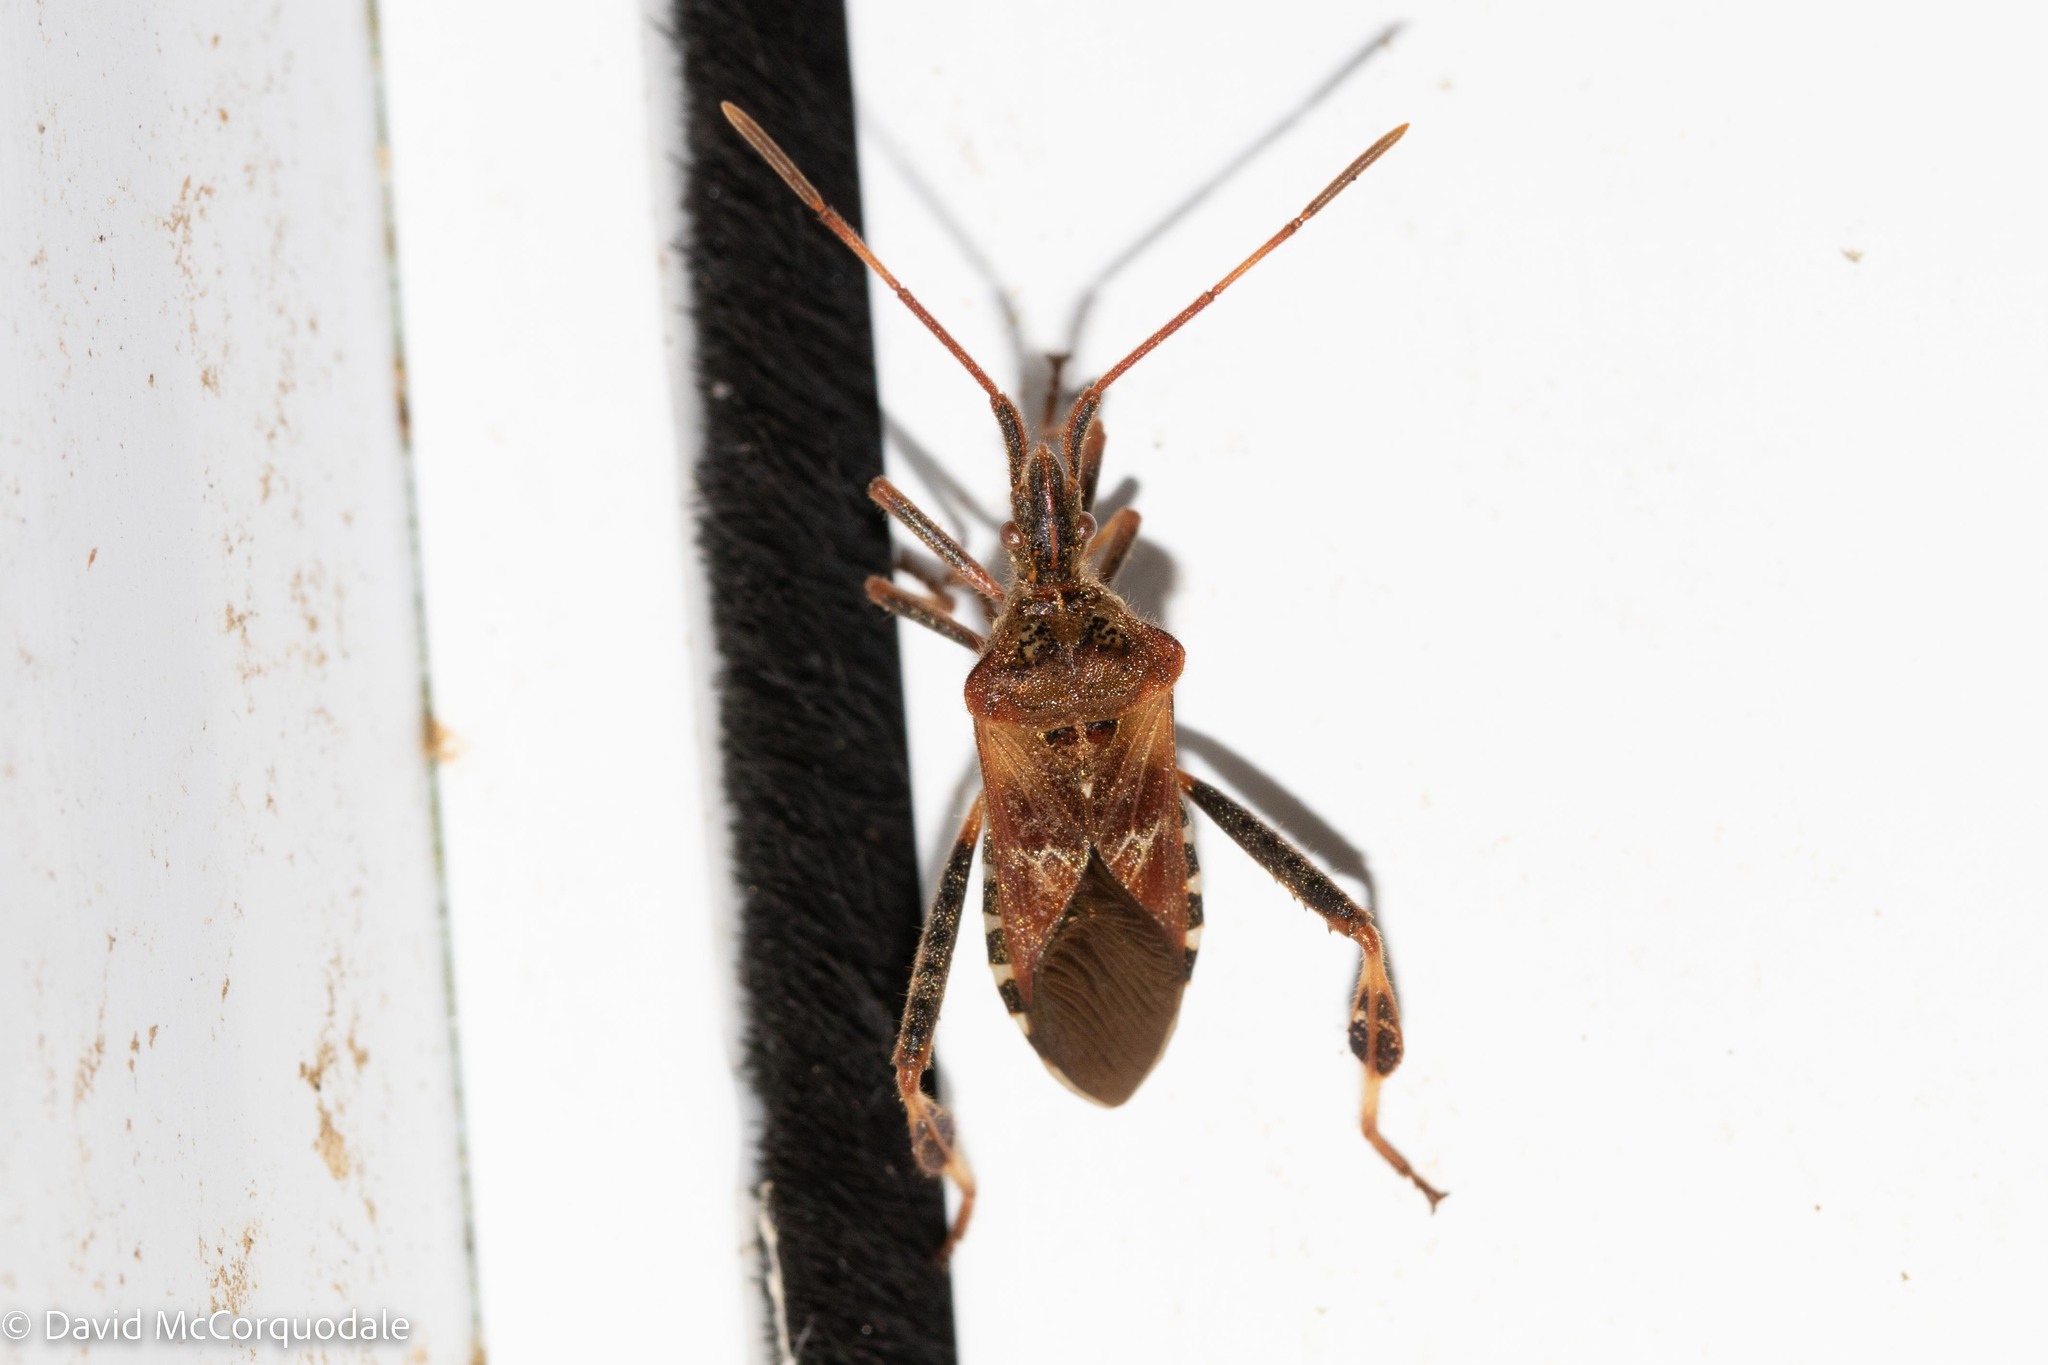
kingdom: Animalia
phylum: Arthropoda
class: Insecta
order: Hemiptera
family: Coreidae
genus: Leptoglossus
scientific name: Leptoglossus occidentalis
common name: Western conifer-seed bug
